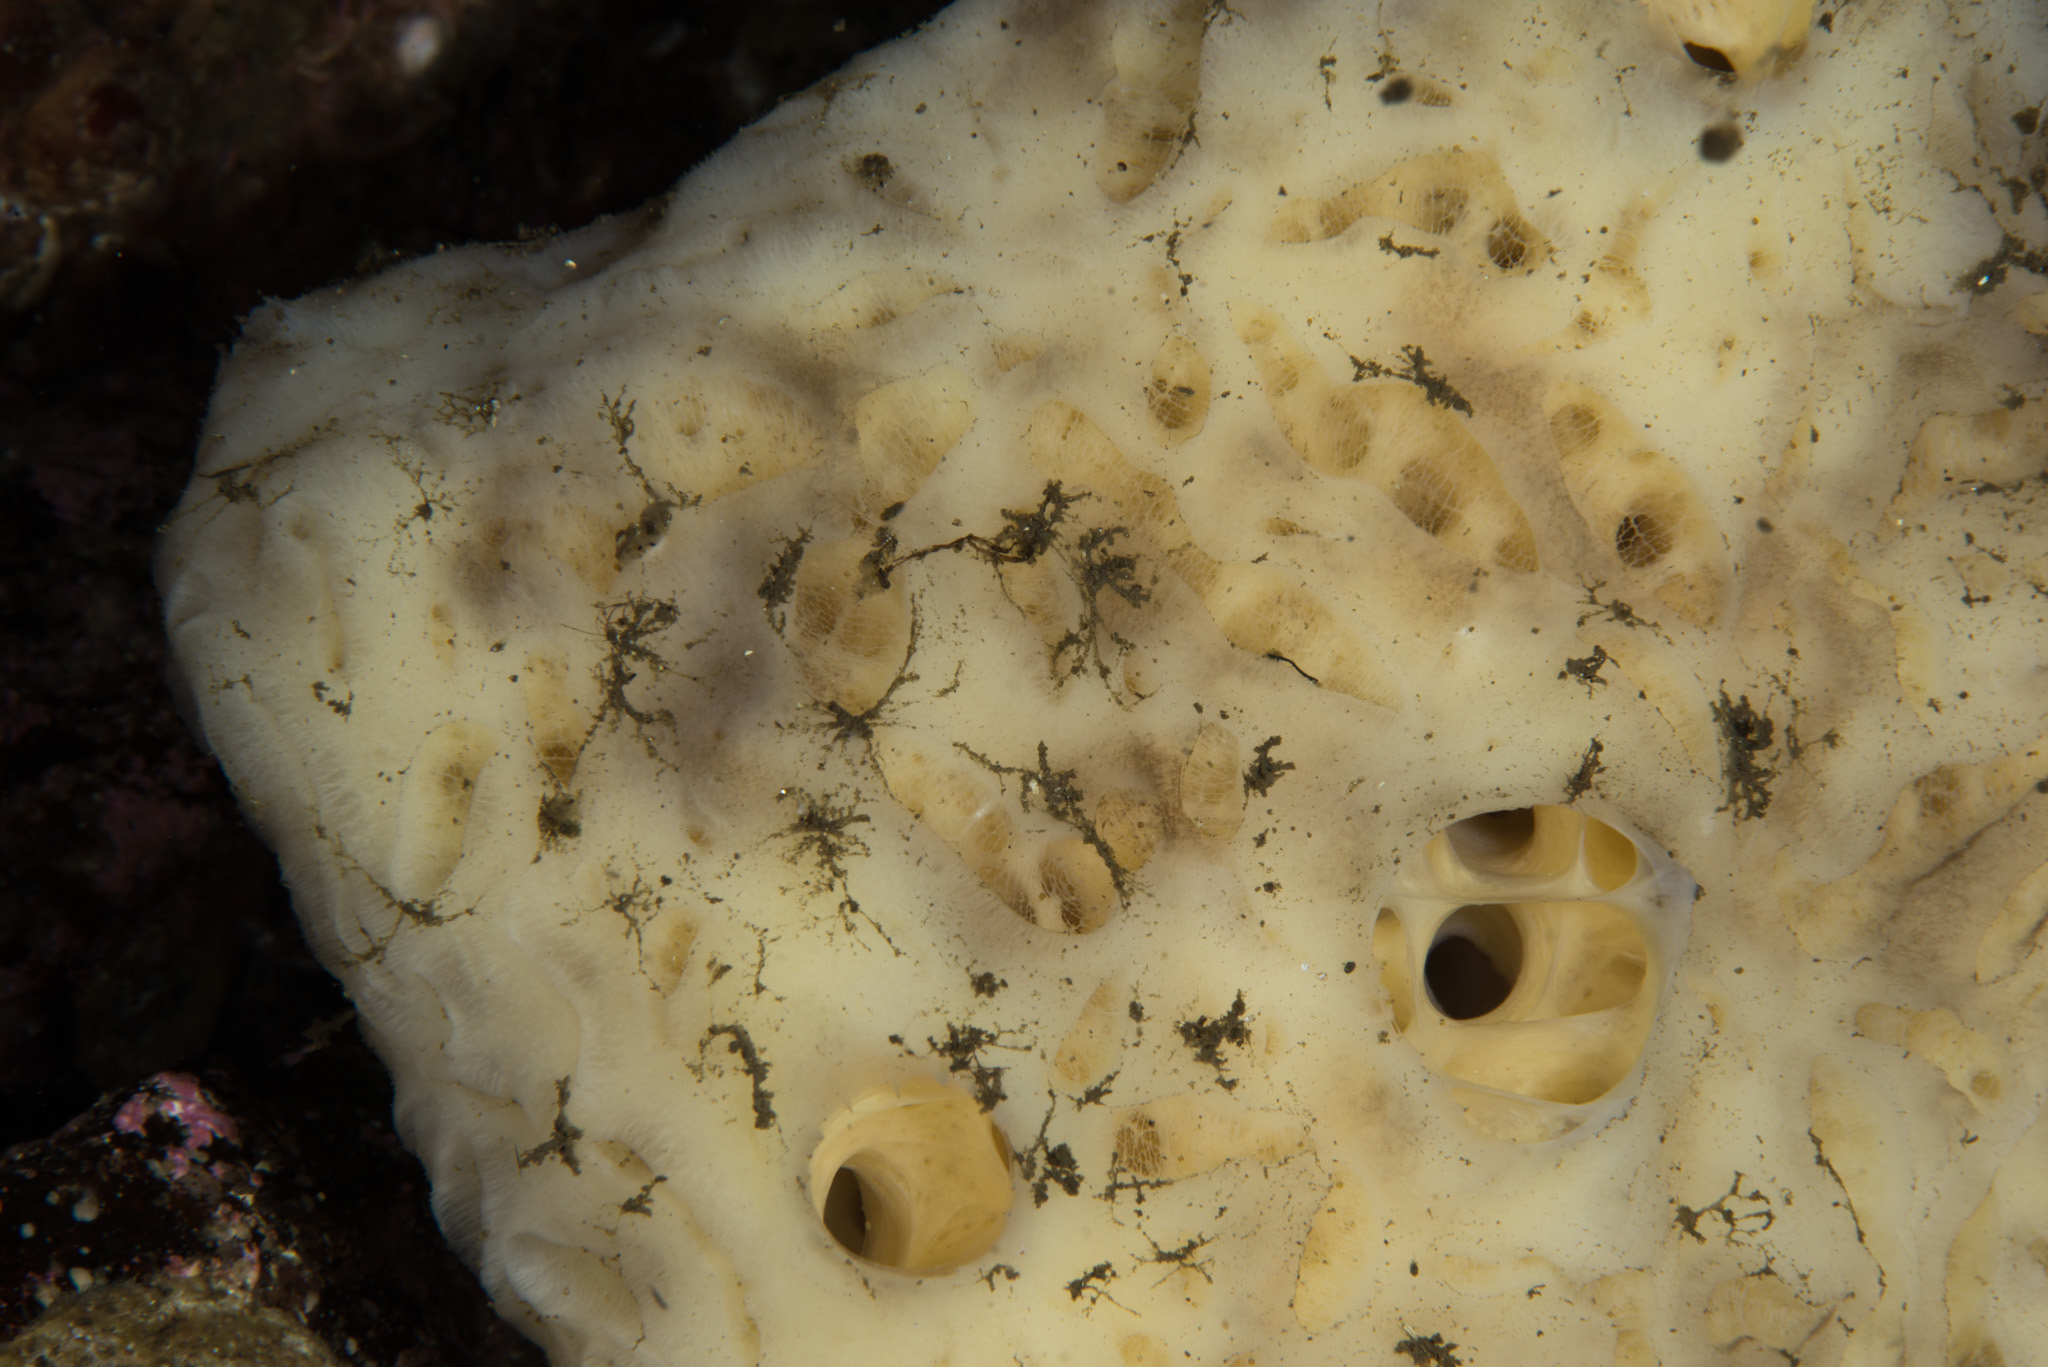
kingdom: Animalia
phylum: Porifera
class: Demospongiae
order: Poecilosclerida
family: Mycalidae
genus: Mycale
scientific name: Mycale lingua
